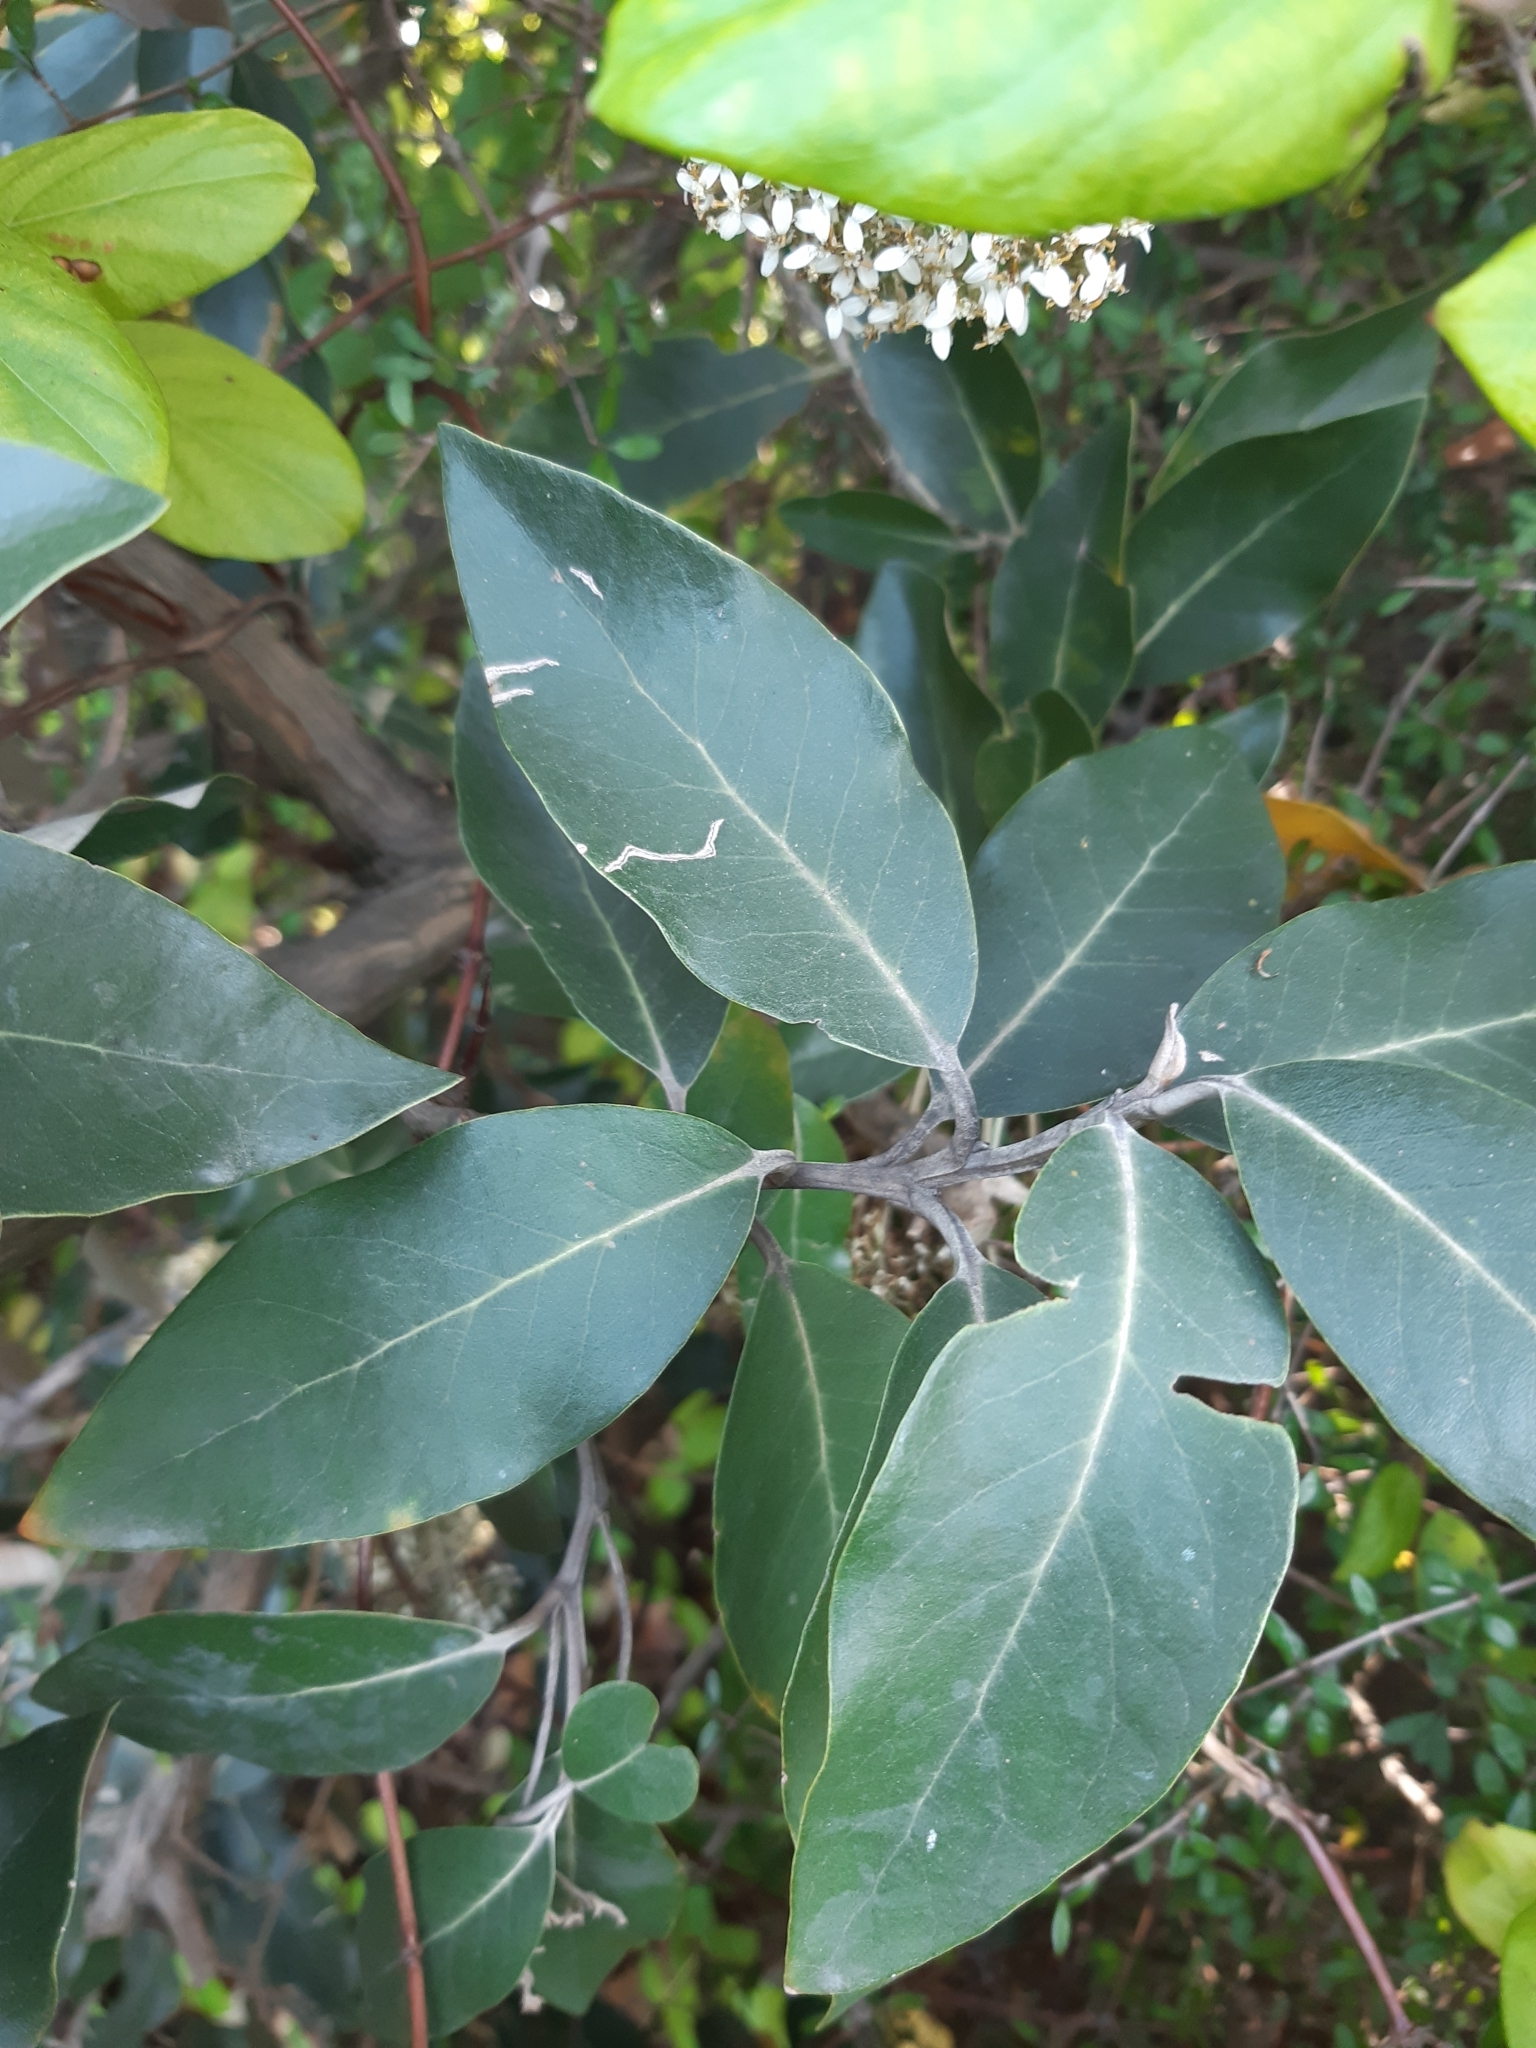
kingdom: Plantae
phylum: Tracheophyta
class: Magnoliopsida
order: Asterales
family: Asteraceae
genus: Olearia
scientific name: Olearia avicenniifolia
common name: Mangrove-leaf daisybush
